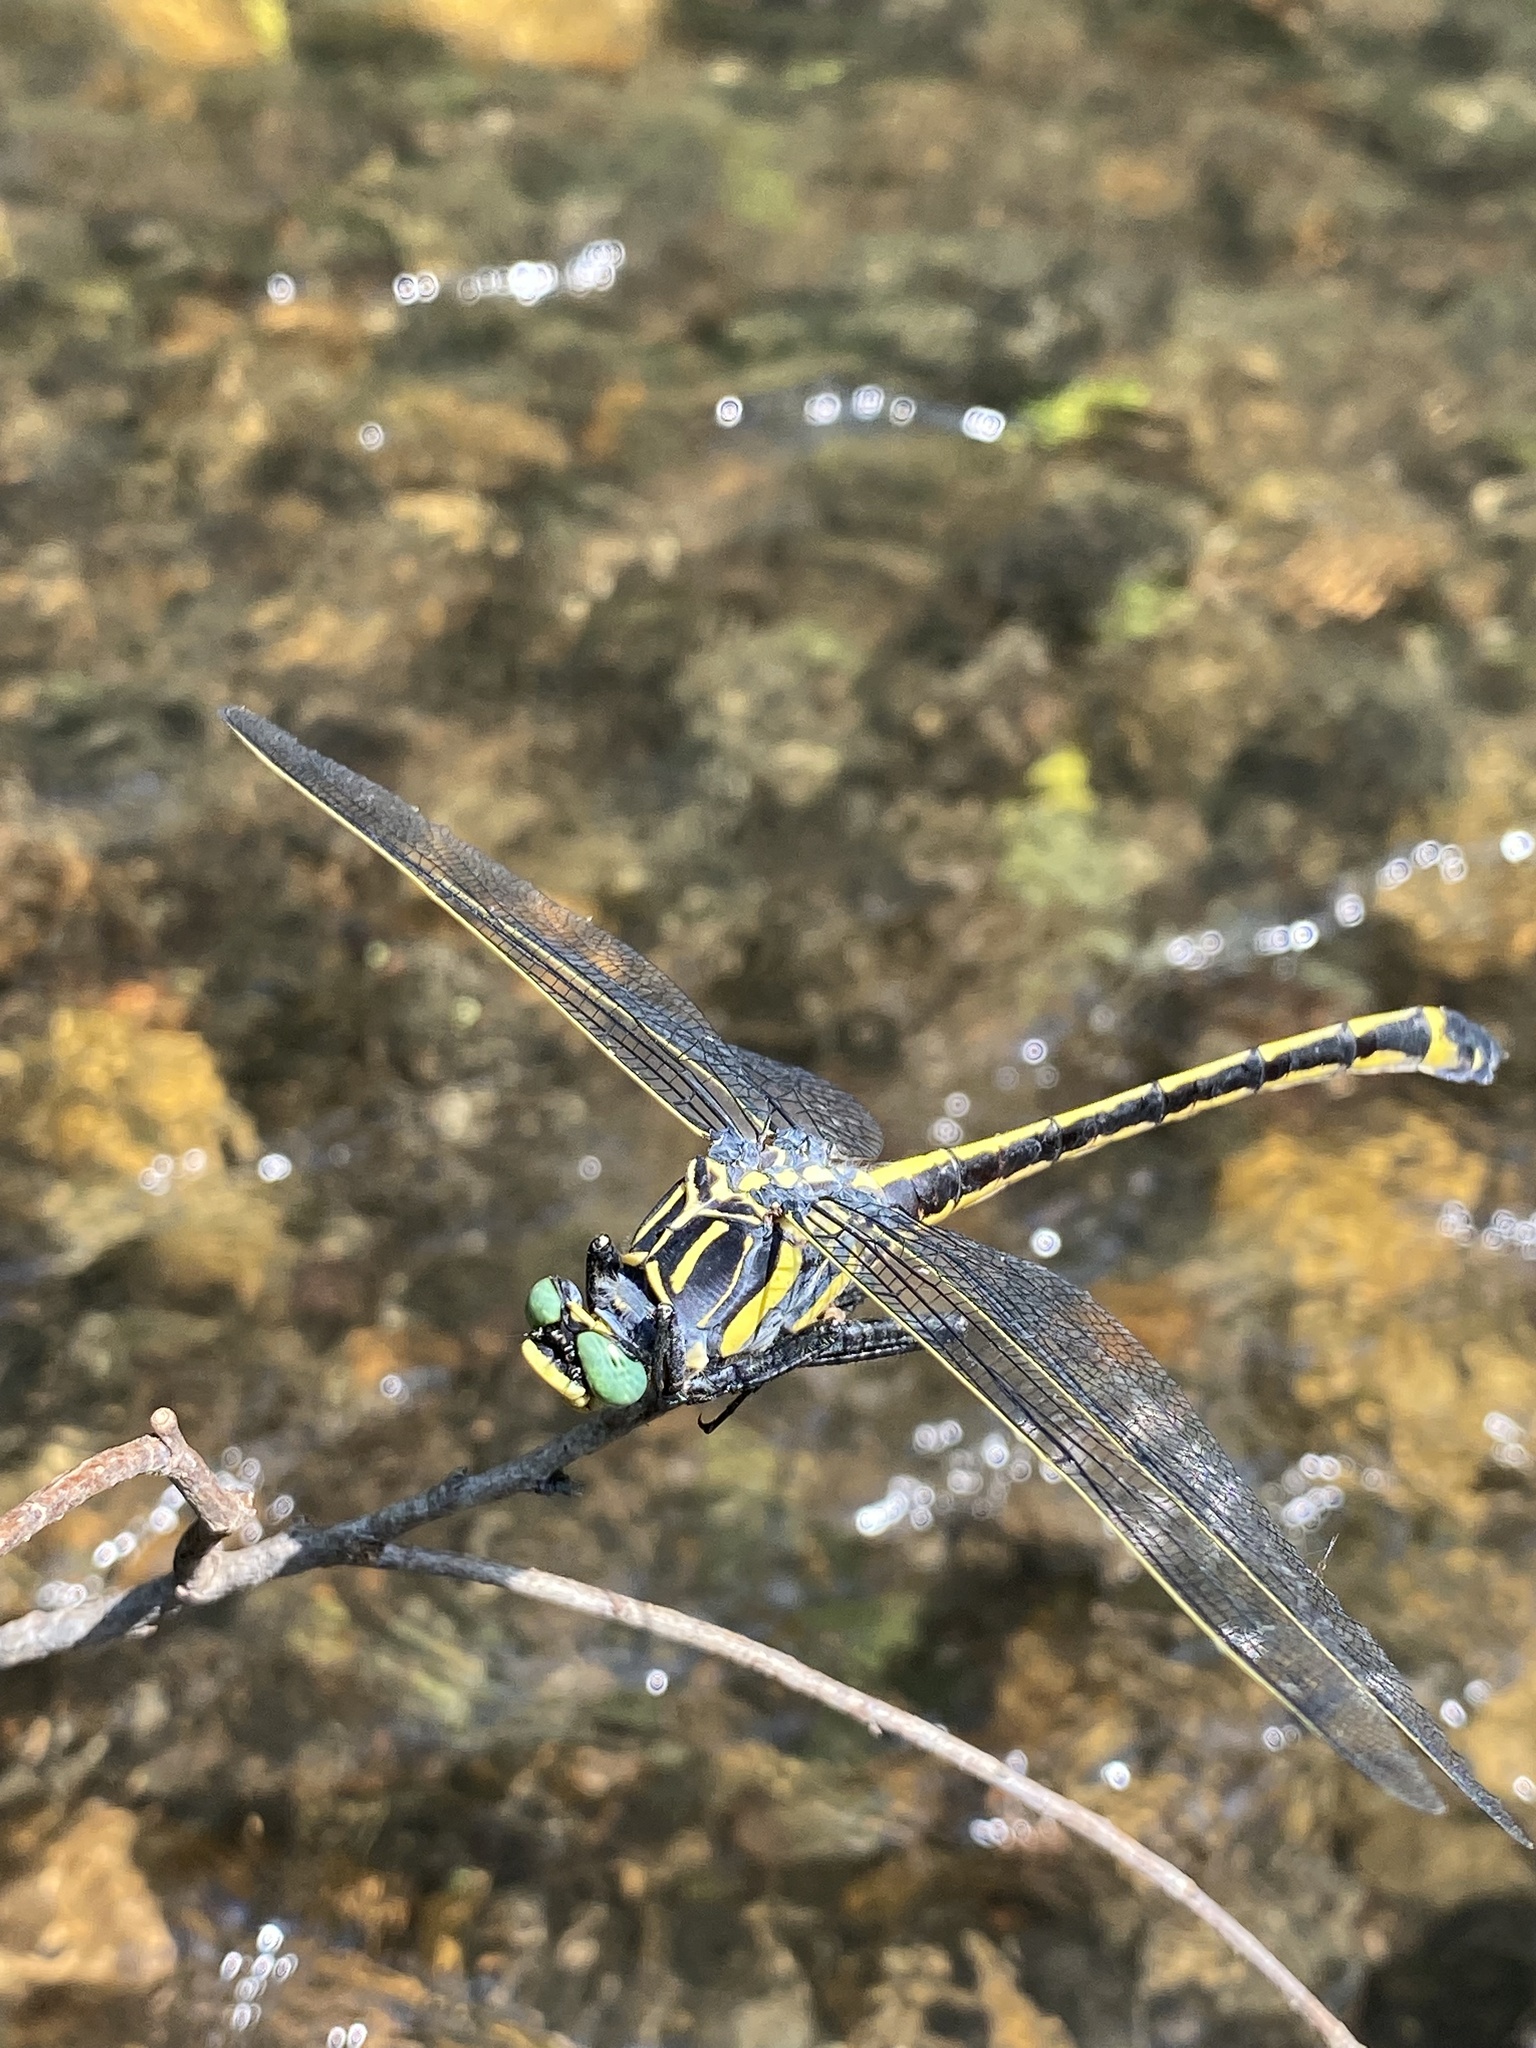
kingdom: Animalia
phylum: Arthropoda
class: Insecta
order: Odonata
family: Gomphidae
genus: Hagenius
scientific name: Hagenius brevistylus
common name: Dragonhunter
